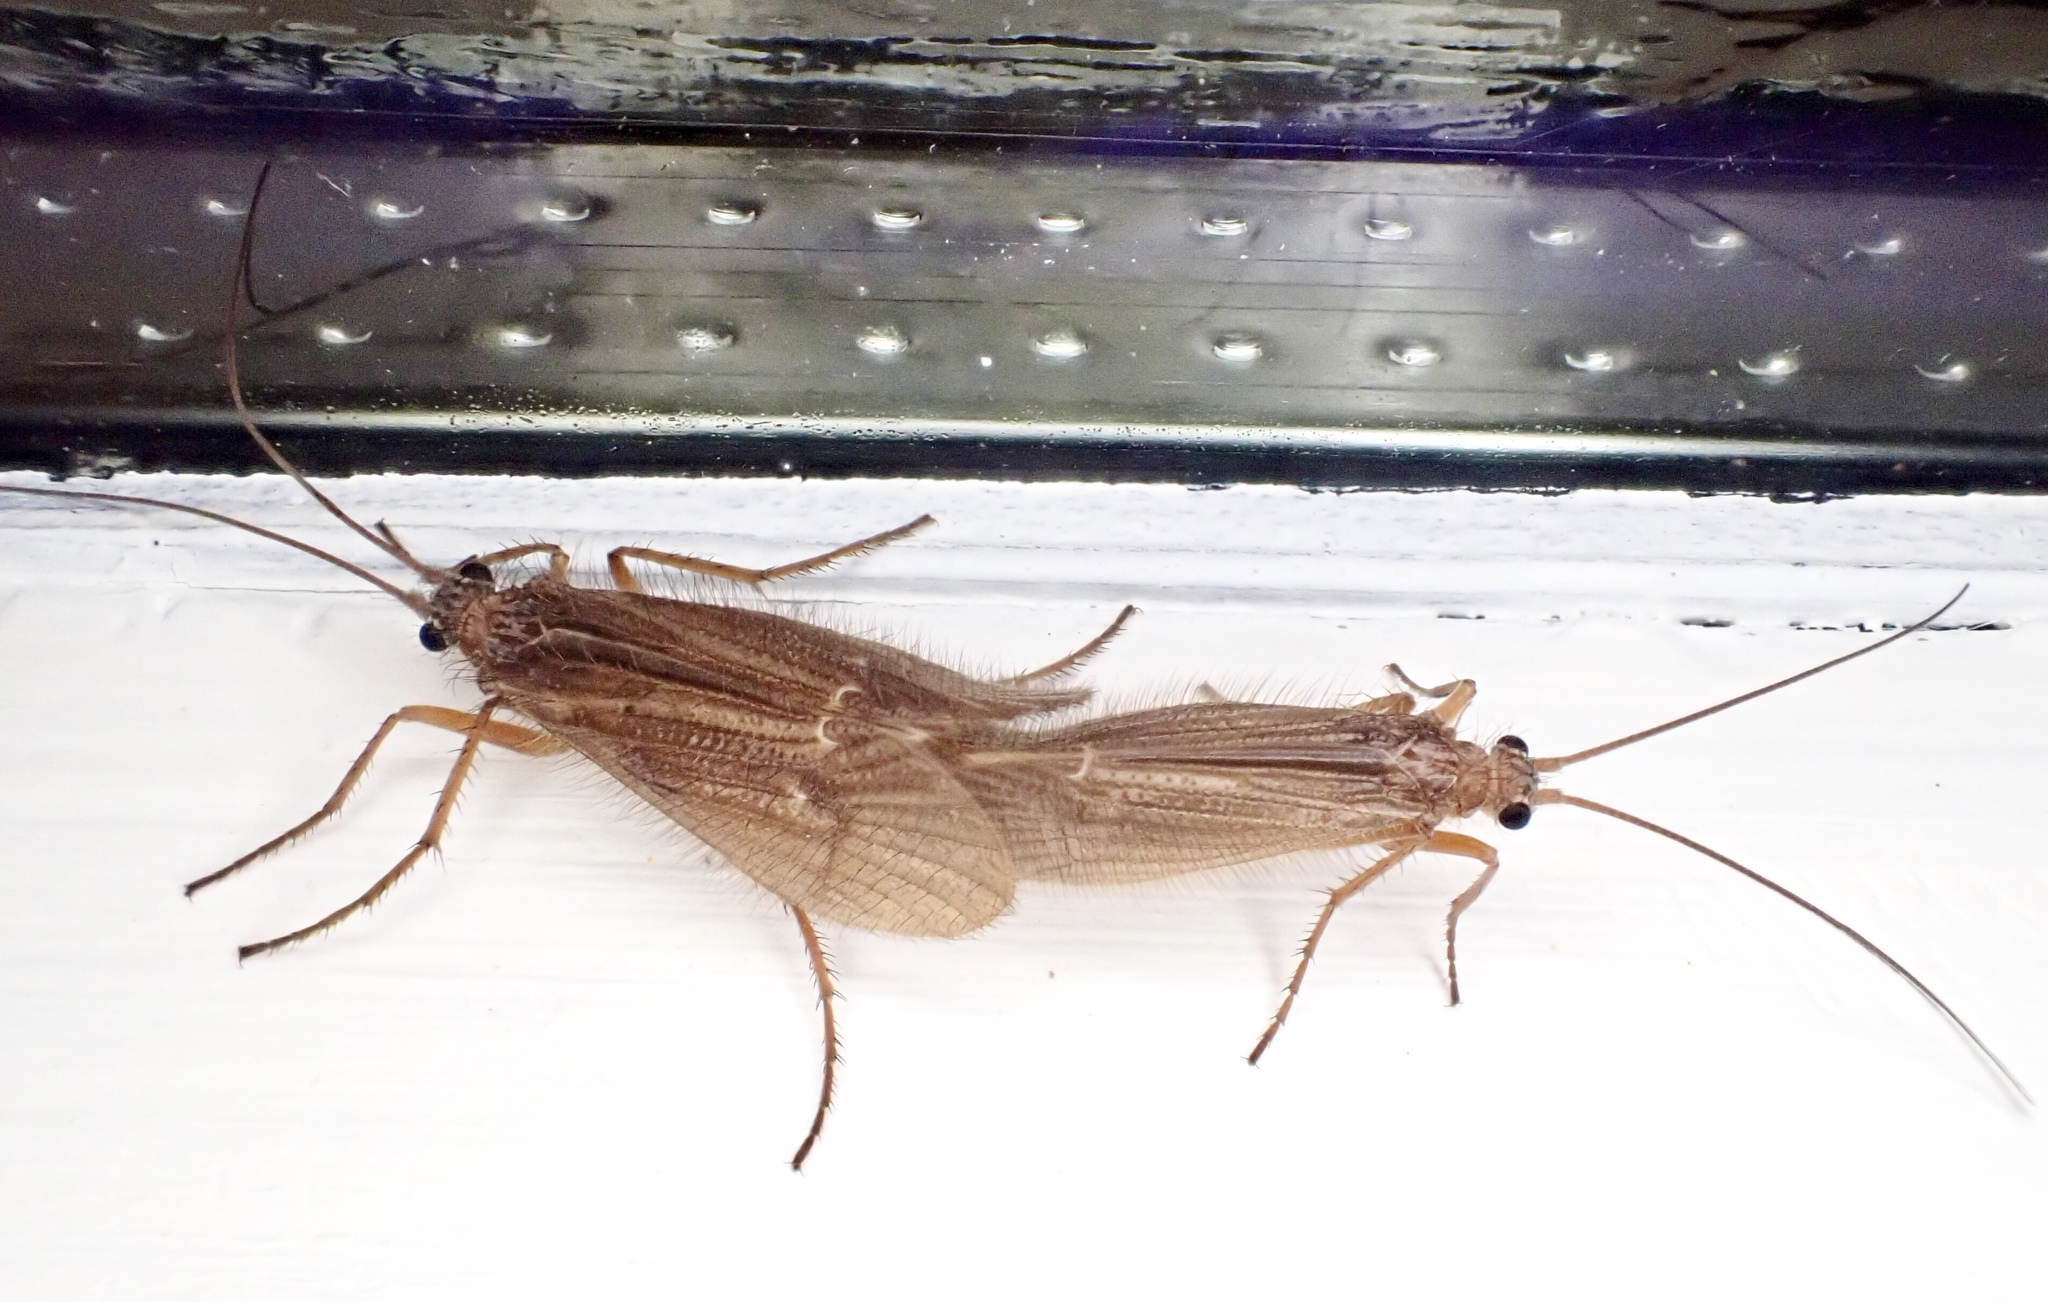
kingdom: Animalia
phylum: Arthropoda
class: Insecta
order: Trichoptera
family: Limnephilidae
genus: Chaetopteryx
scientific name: Chaetopteryx villosa
